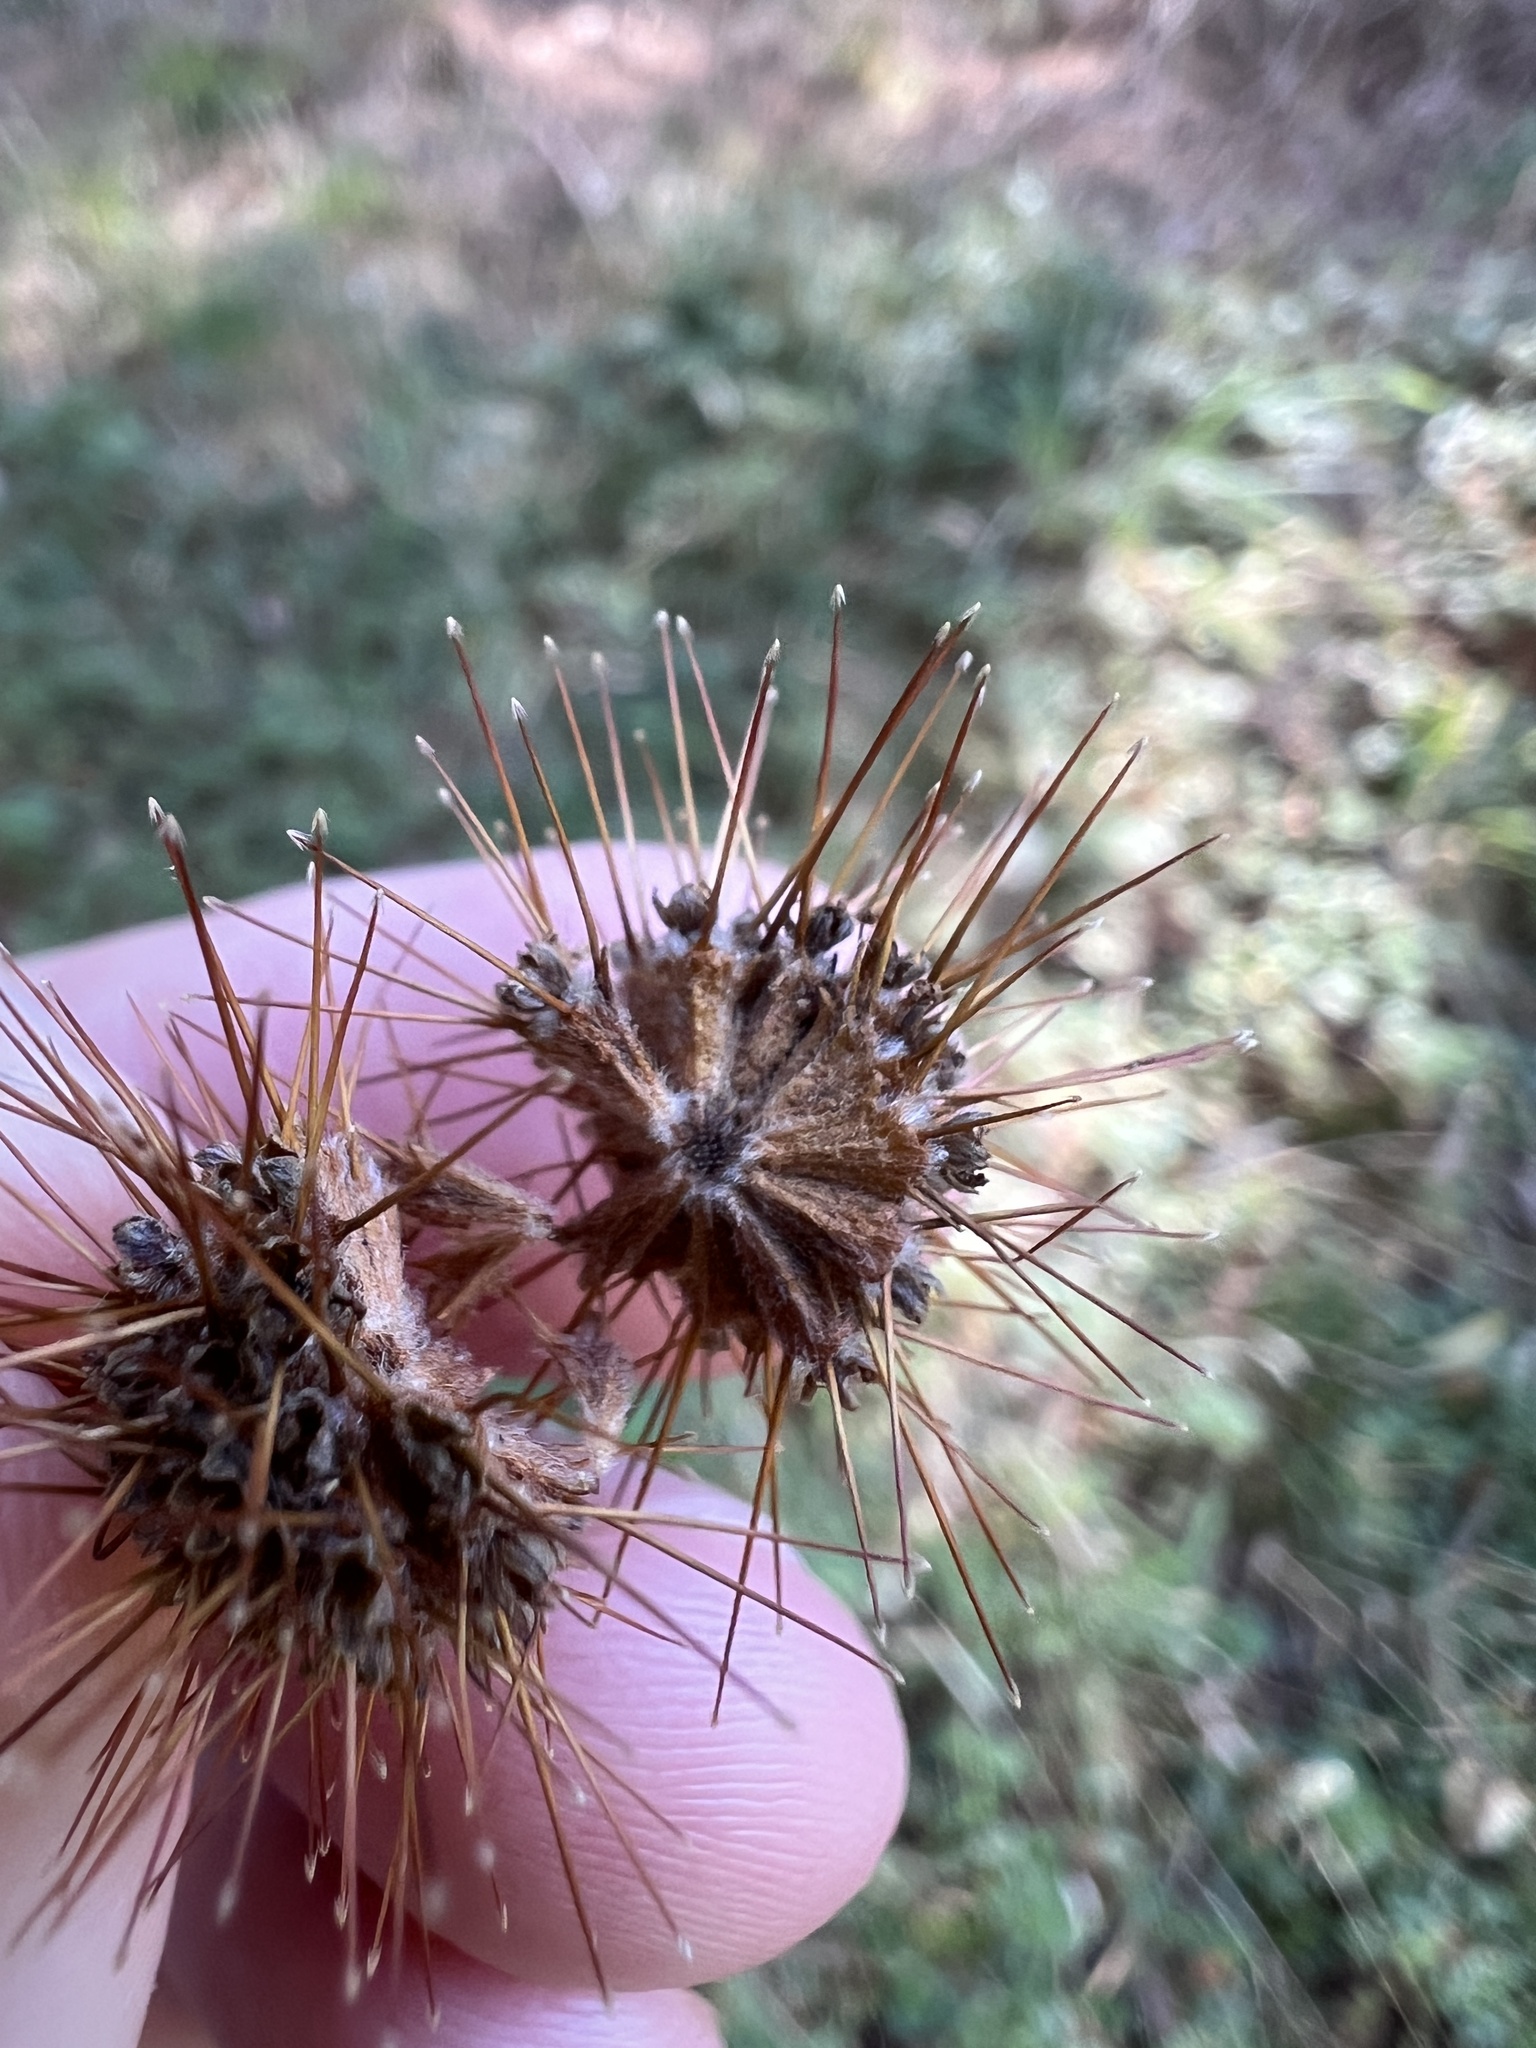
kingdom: Plantae
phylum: Tracheophyta
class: Magnoliopsida
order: Rosales
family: Rosaceae
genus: Acaena
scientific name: Acaena novae-zelandiae
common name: Pirri-pirri-bur
